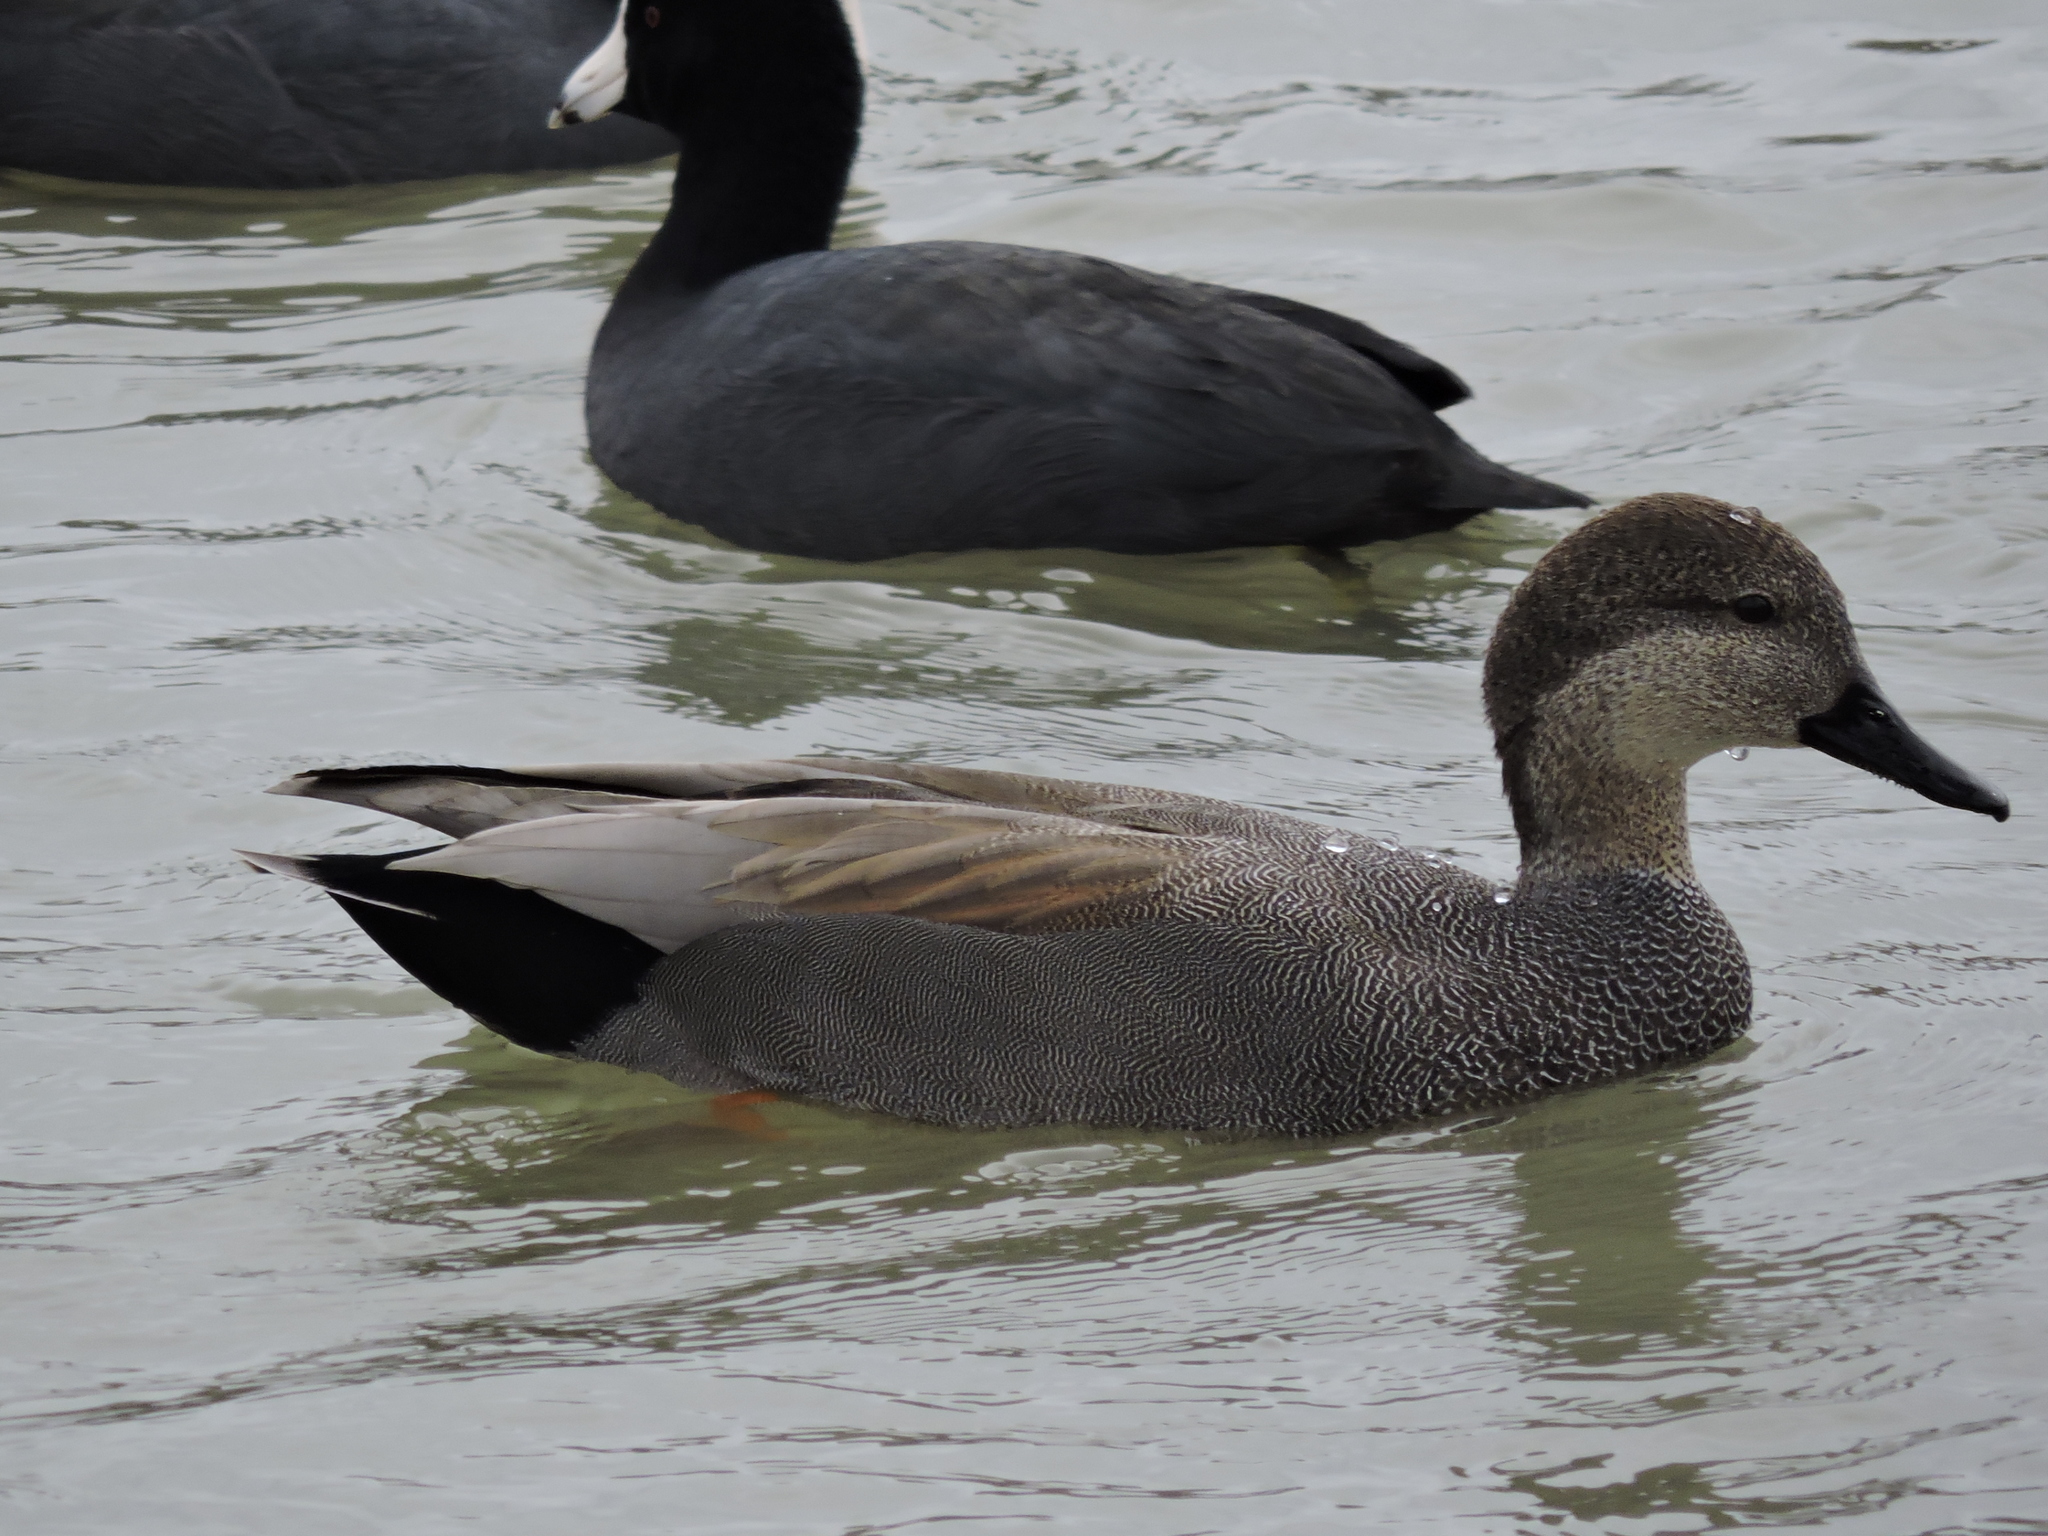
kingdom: Animalia
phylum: Chordata
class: Aves
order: Anseriformes
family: Anatidae
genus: Mareca
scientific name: Mareca strepera
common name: Gadwall
